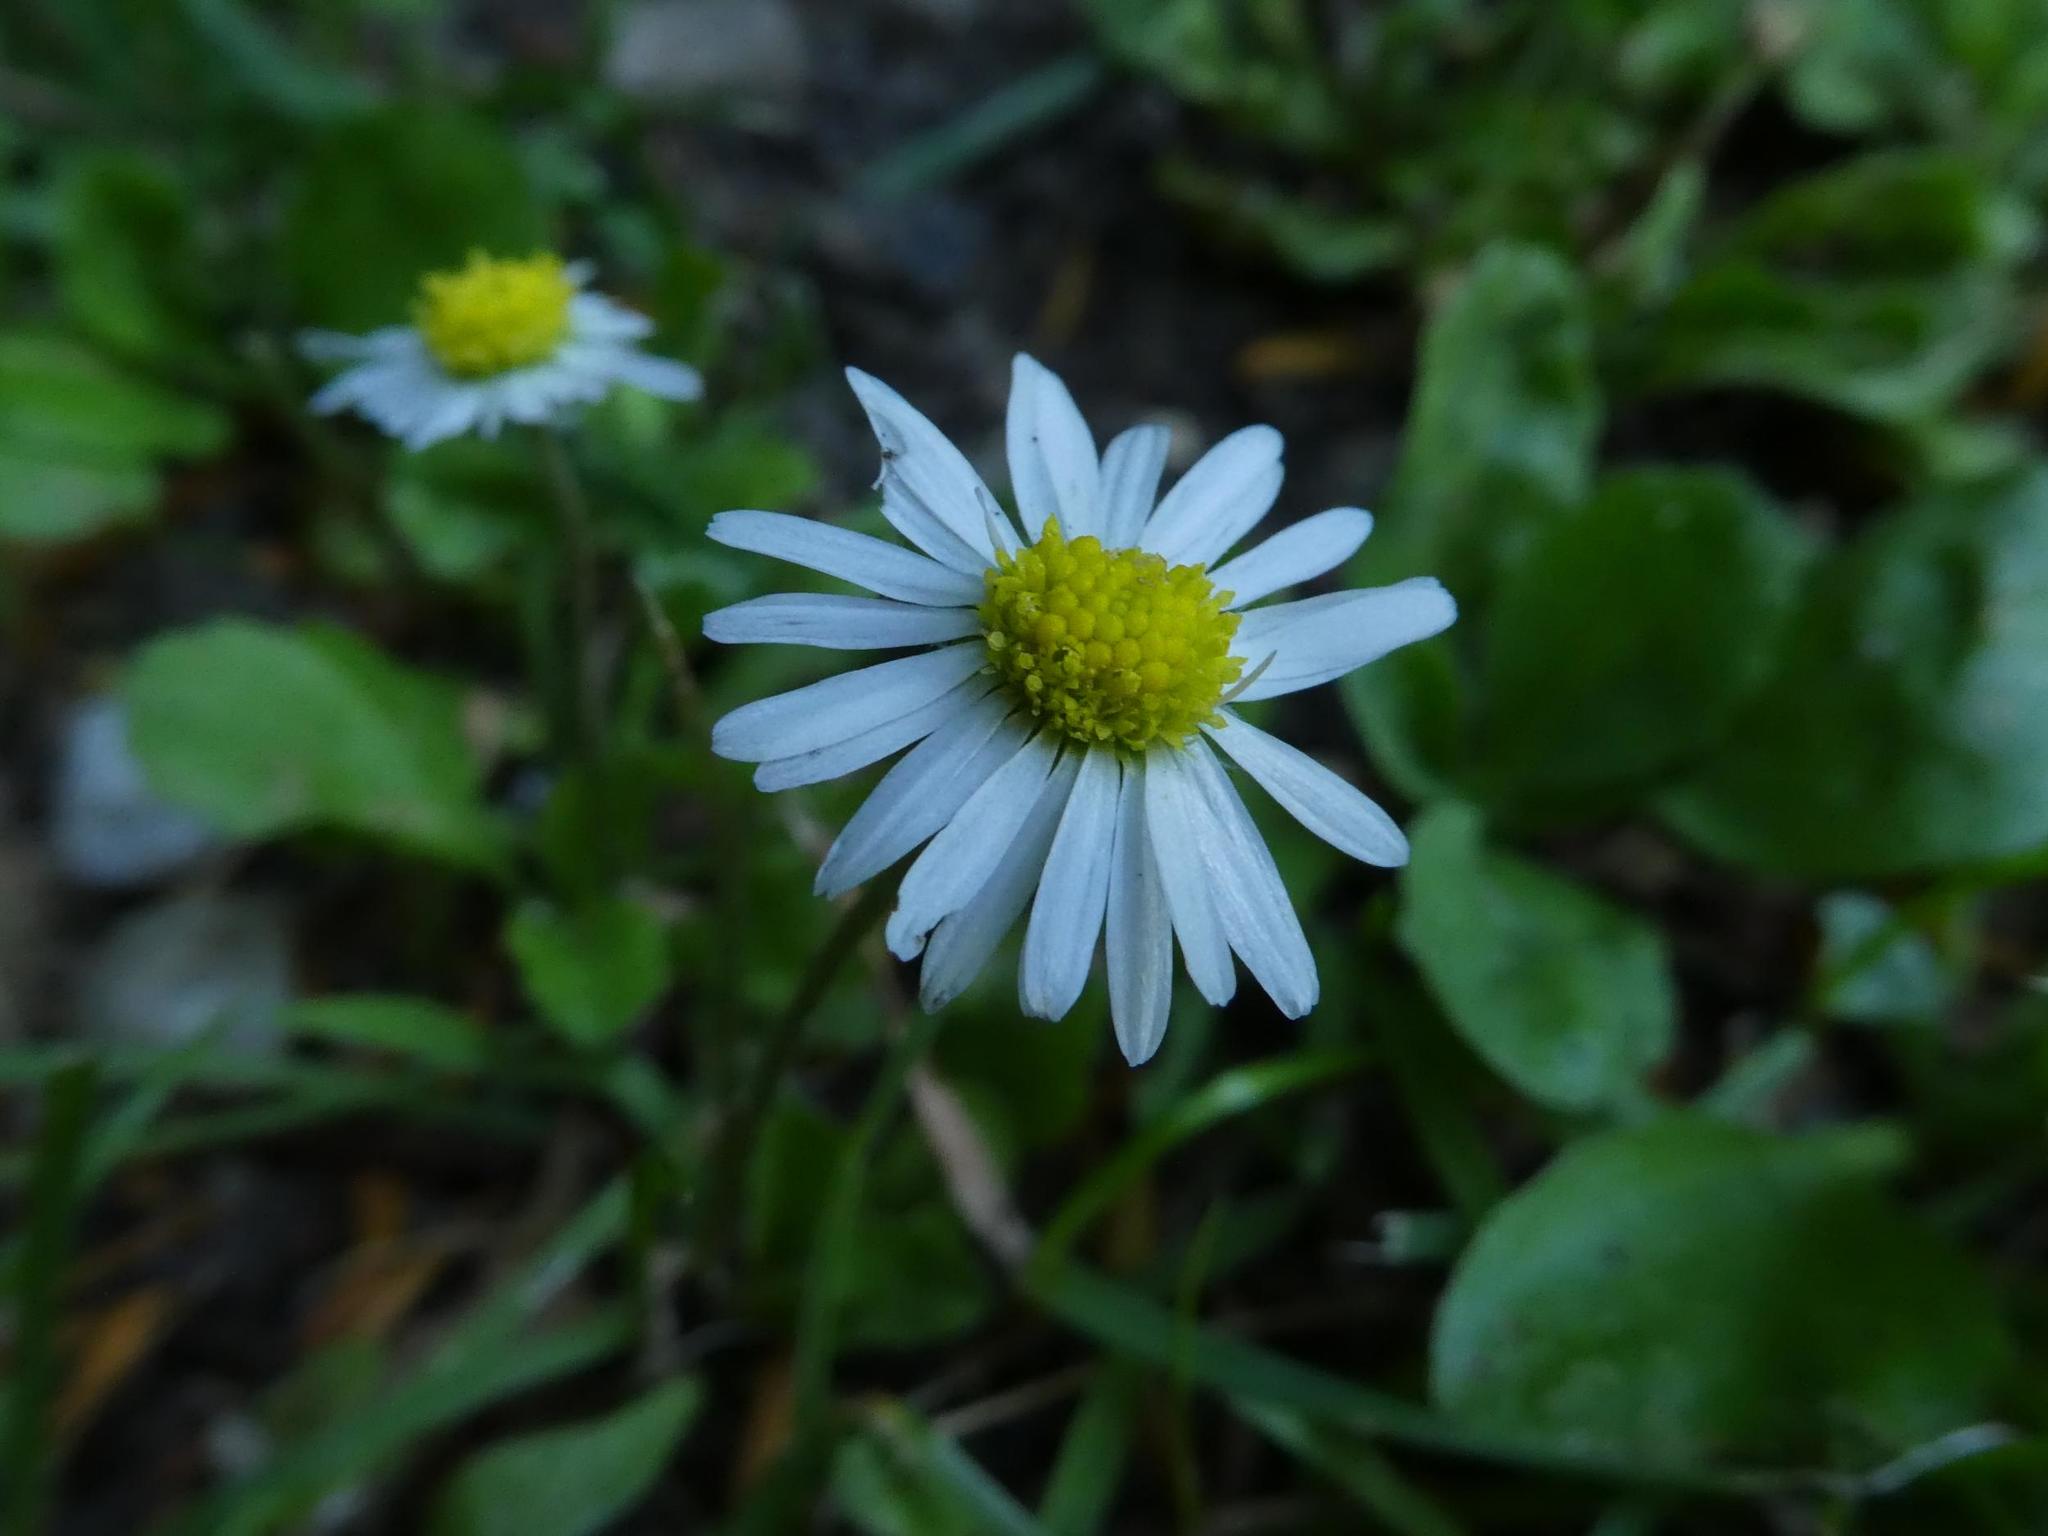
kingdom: Plantae
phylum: Tracheophyta
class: Magnoliopsida
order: Asterales
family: Asteraceae
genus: Bellis
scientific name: Bellis perennis
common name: Lawndaisy
